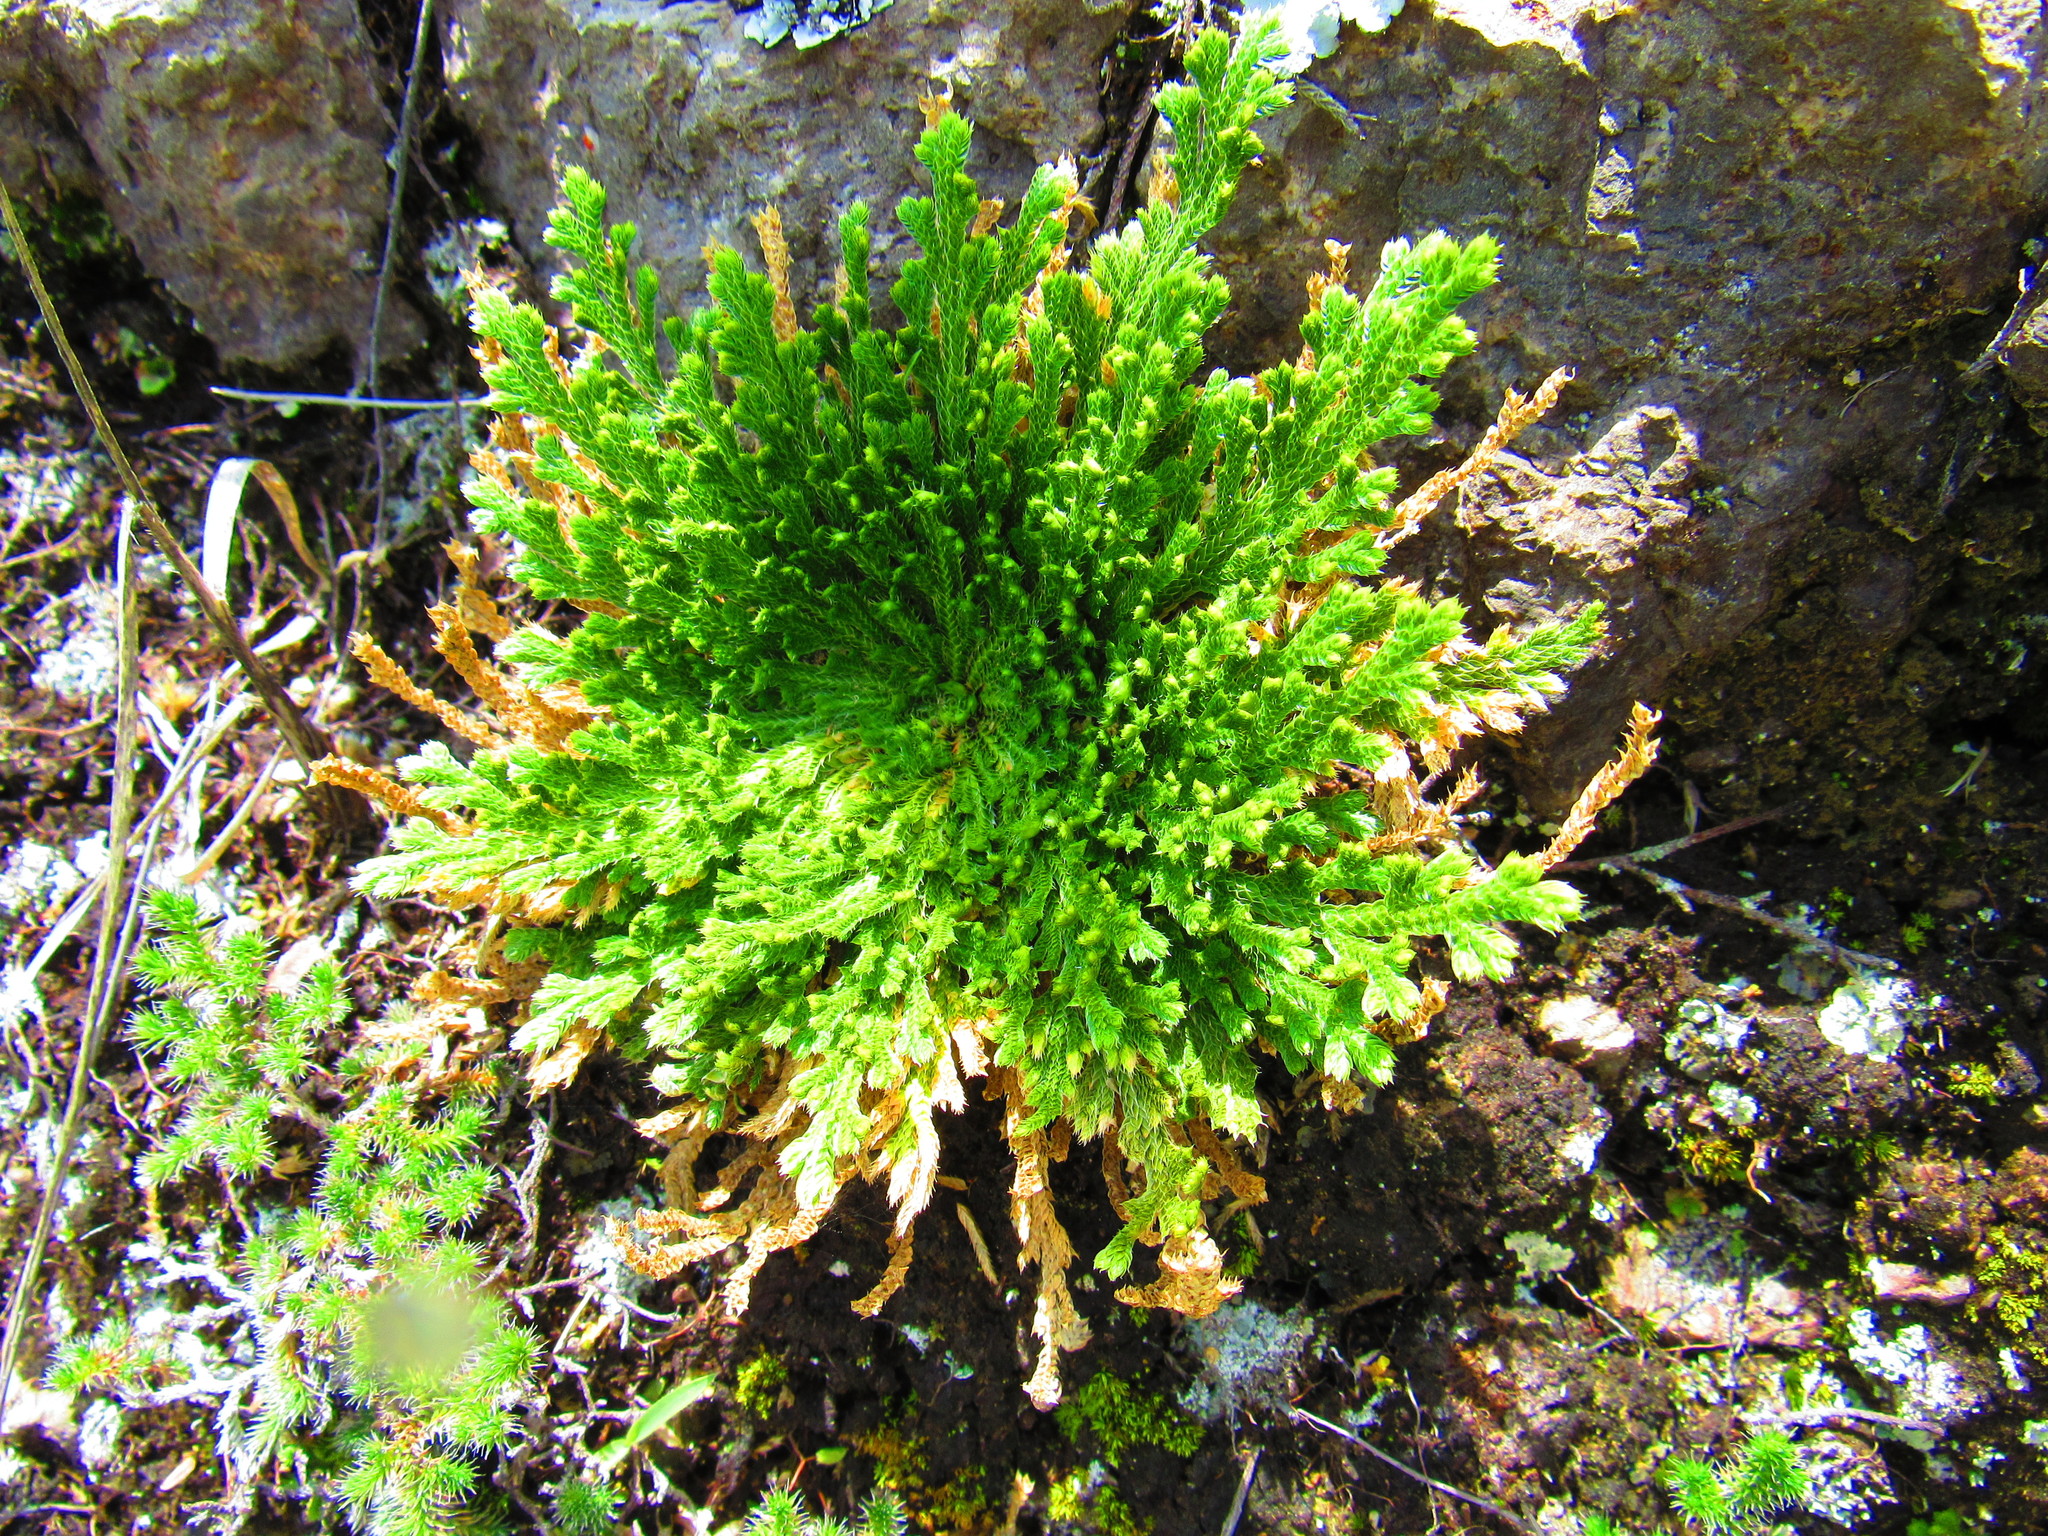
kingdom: Plantae
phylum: Tracheophyta
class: Lycopodiopsida
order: Selaginellales
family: Selaginellaceae
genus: Selaginella
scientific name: Selaginella lepidophylla
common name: Rose-of-jericho
